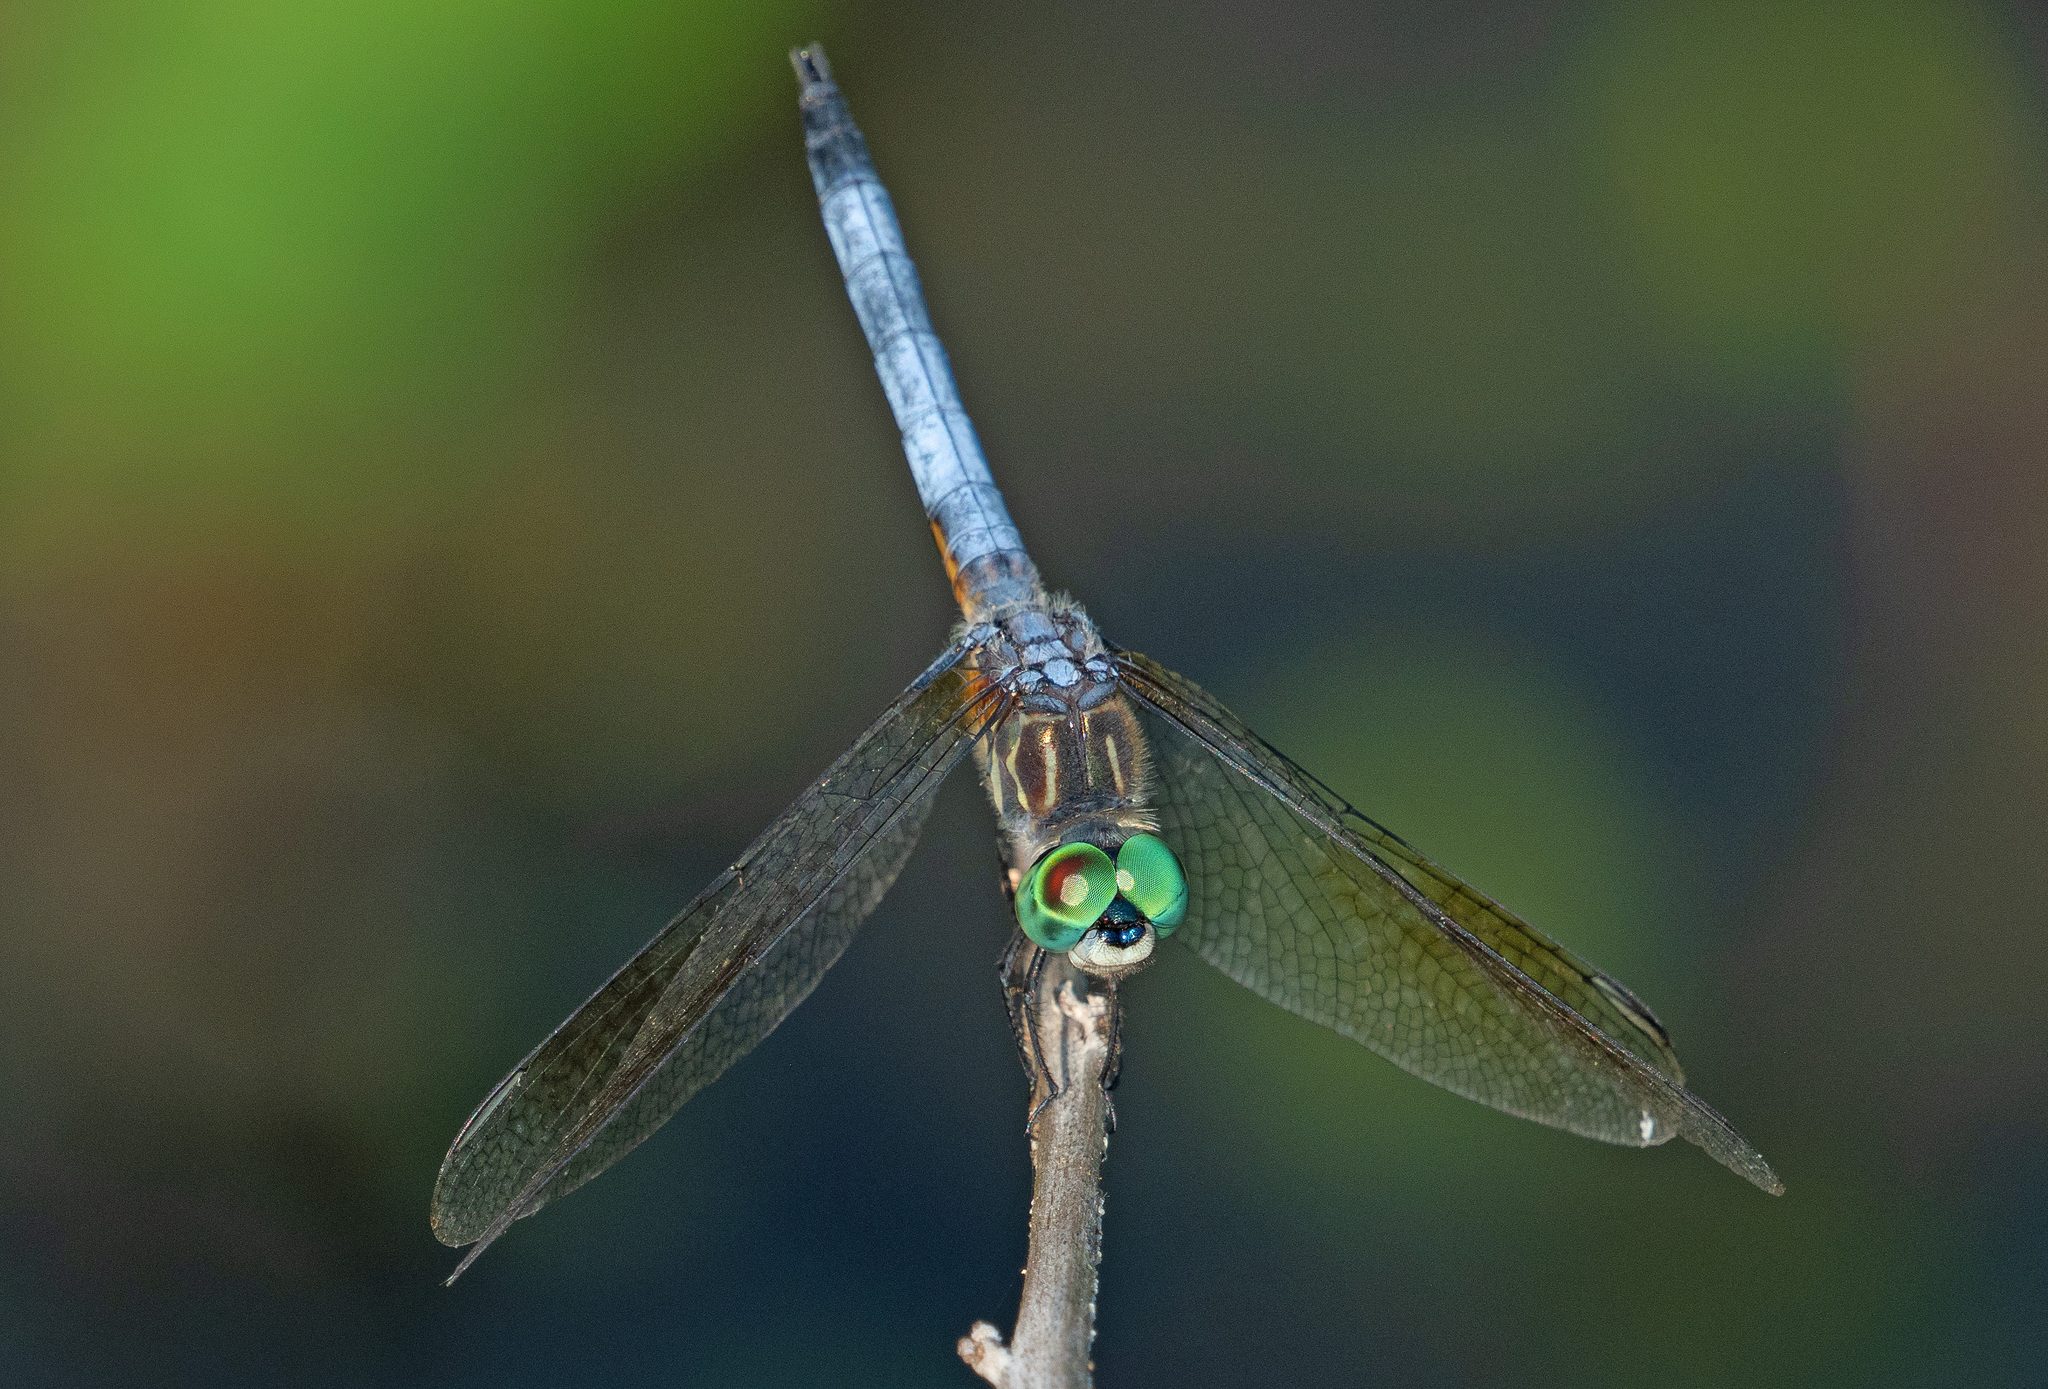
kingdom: Animalia
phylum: Arthropoda
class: Insecta
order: Odonata
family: Libellulidae
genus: Pachydiplax
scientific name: Pachydiplax longipennis
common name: Blue dasher
